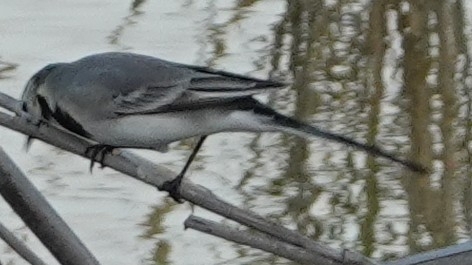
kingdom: Animalia
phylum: Chordata
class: Aves
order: Passeriformes
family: Motacillidae
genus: Motacilla
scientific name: Motacilla alba
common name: White wagtail
